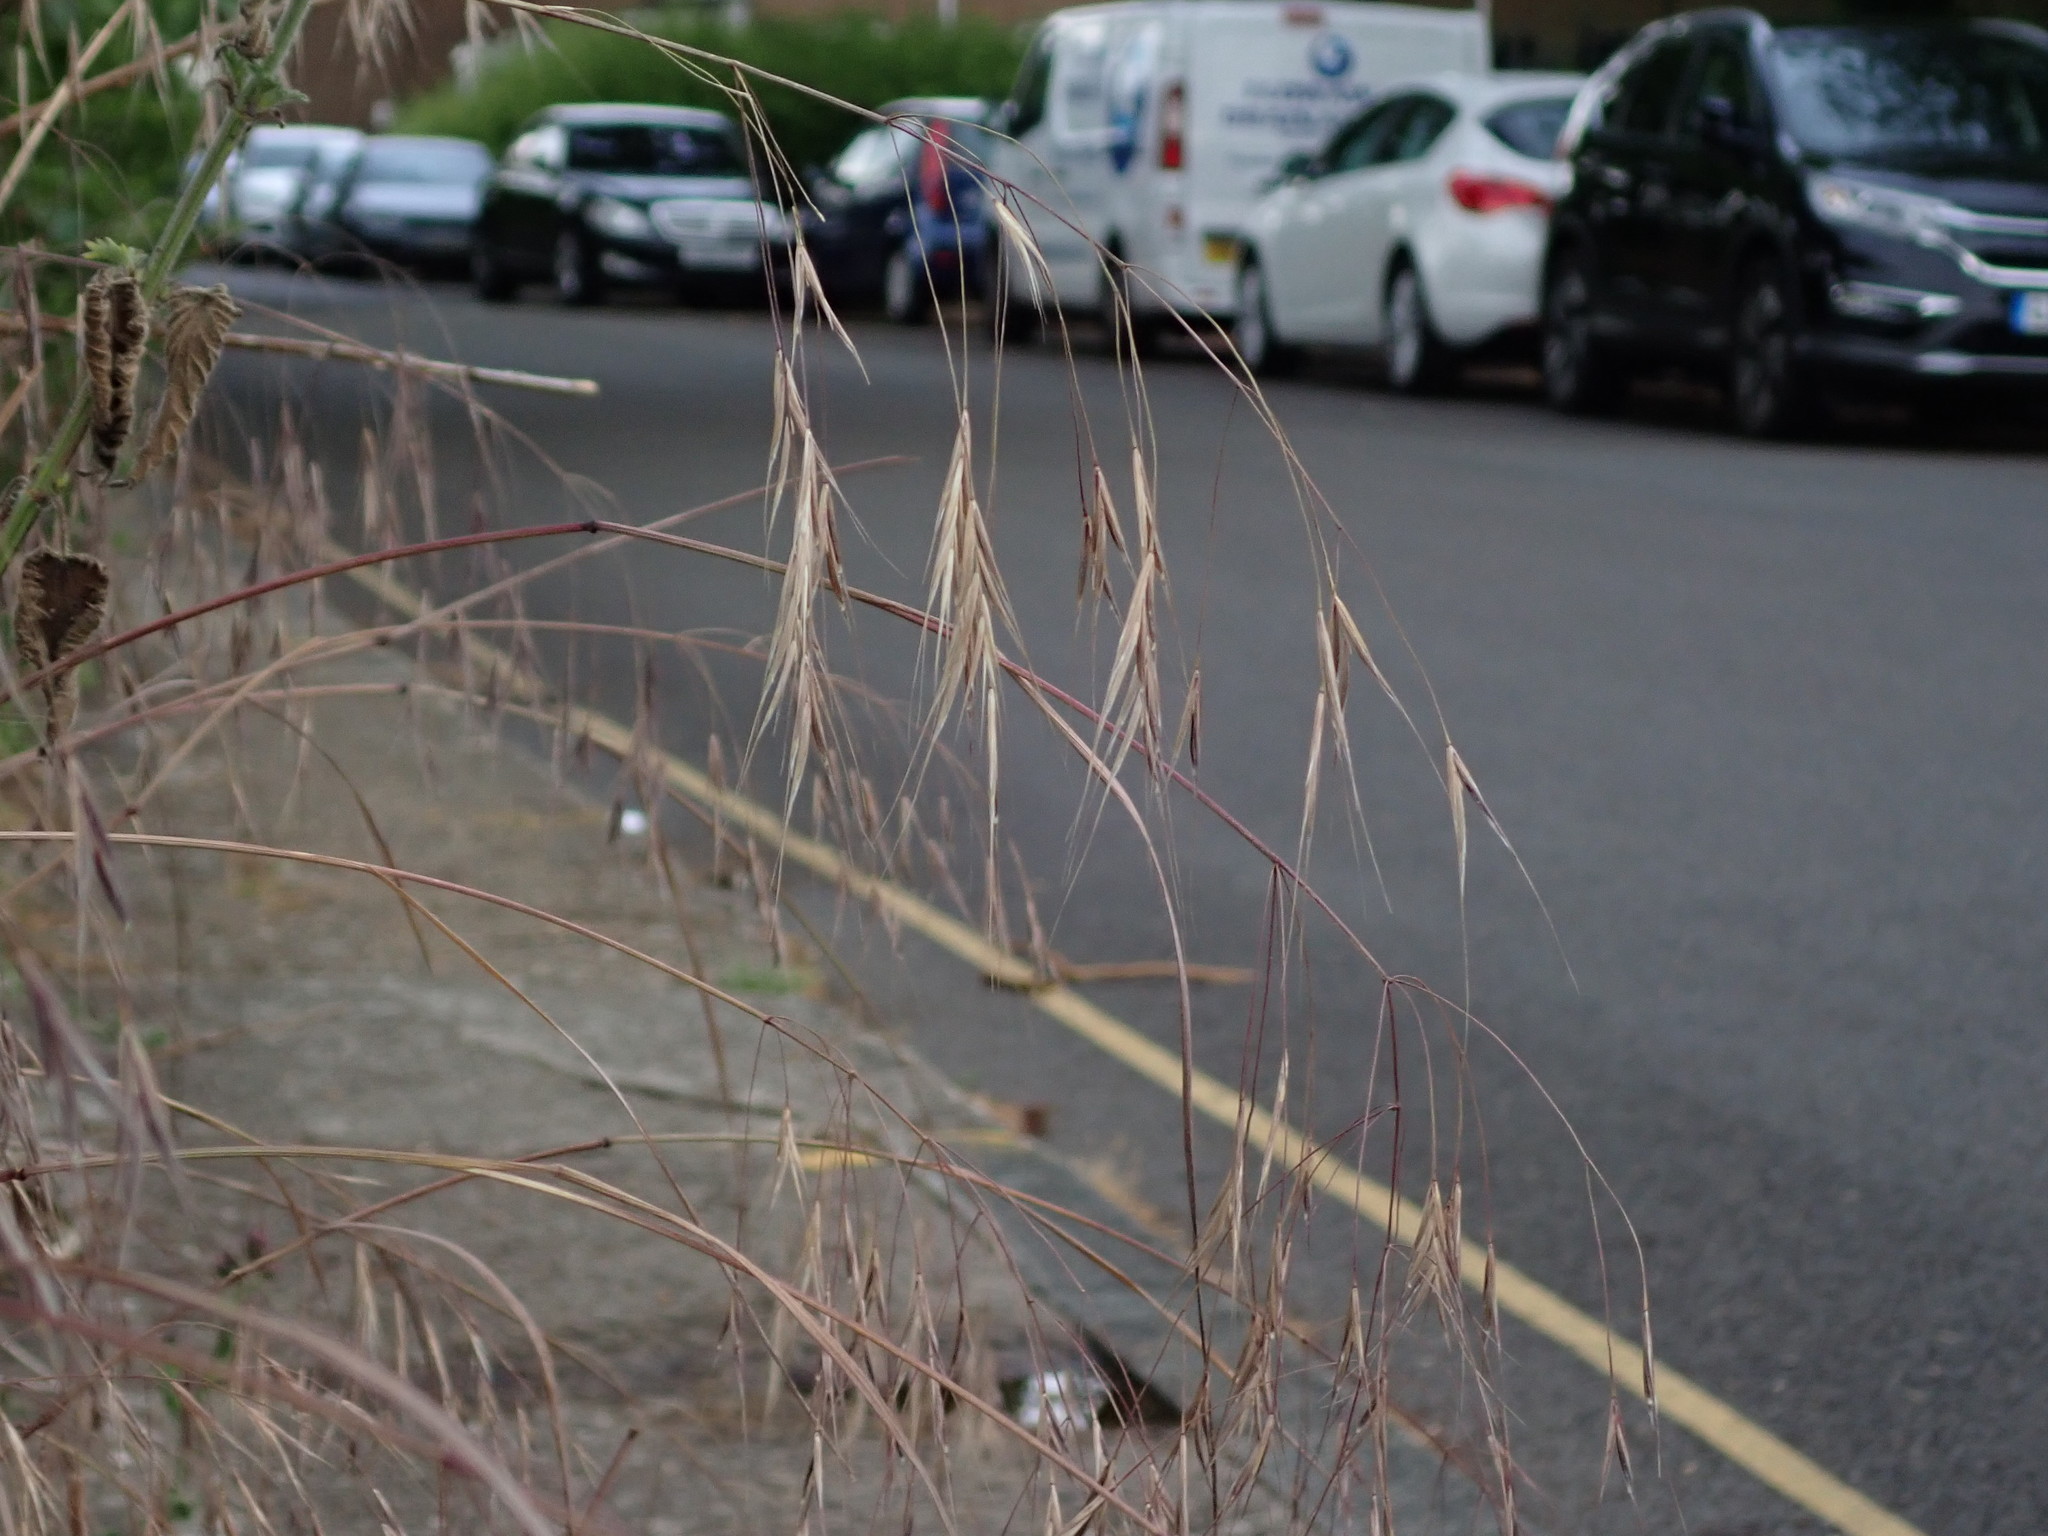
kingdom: Plantae
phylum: Tracheophyta
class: Liliopsida
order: Poales
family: Poaceae
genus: Bromus
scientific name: Bromus sterilis
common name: Poverty brome
